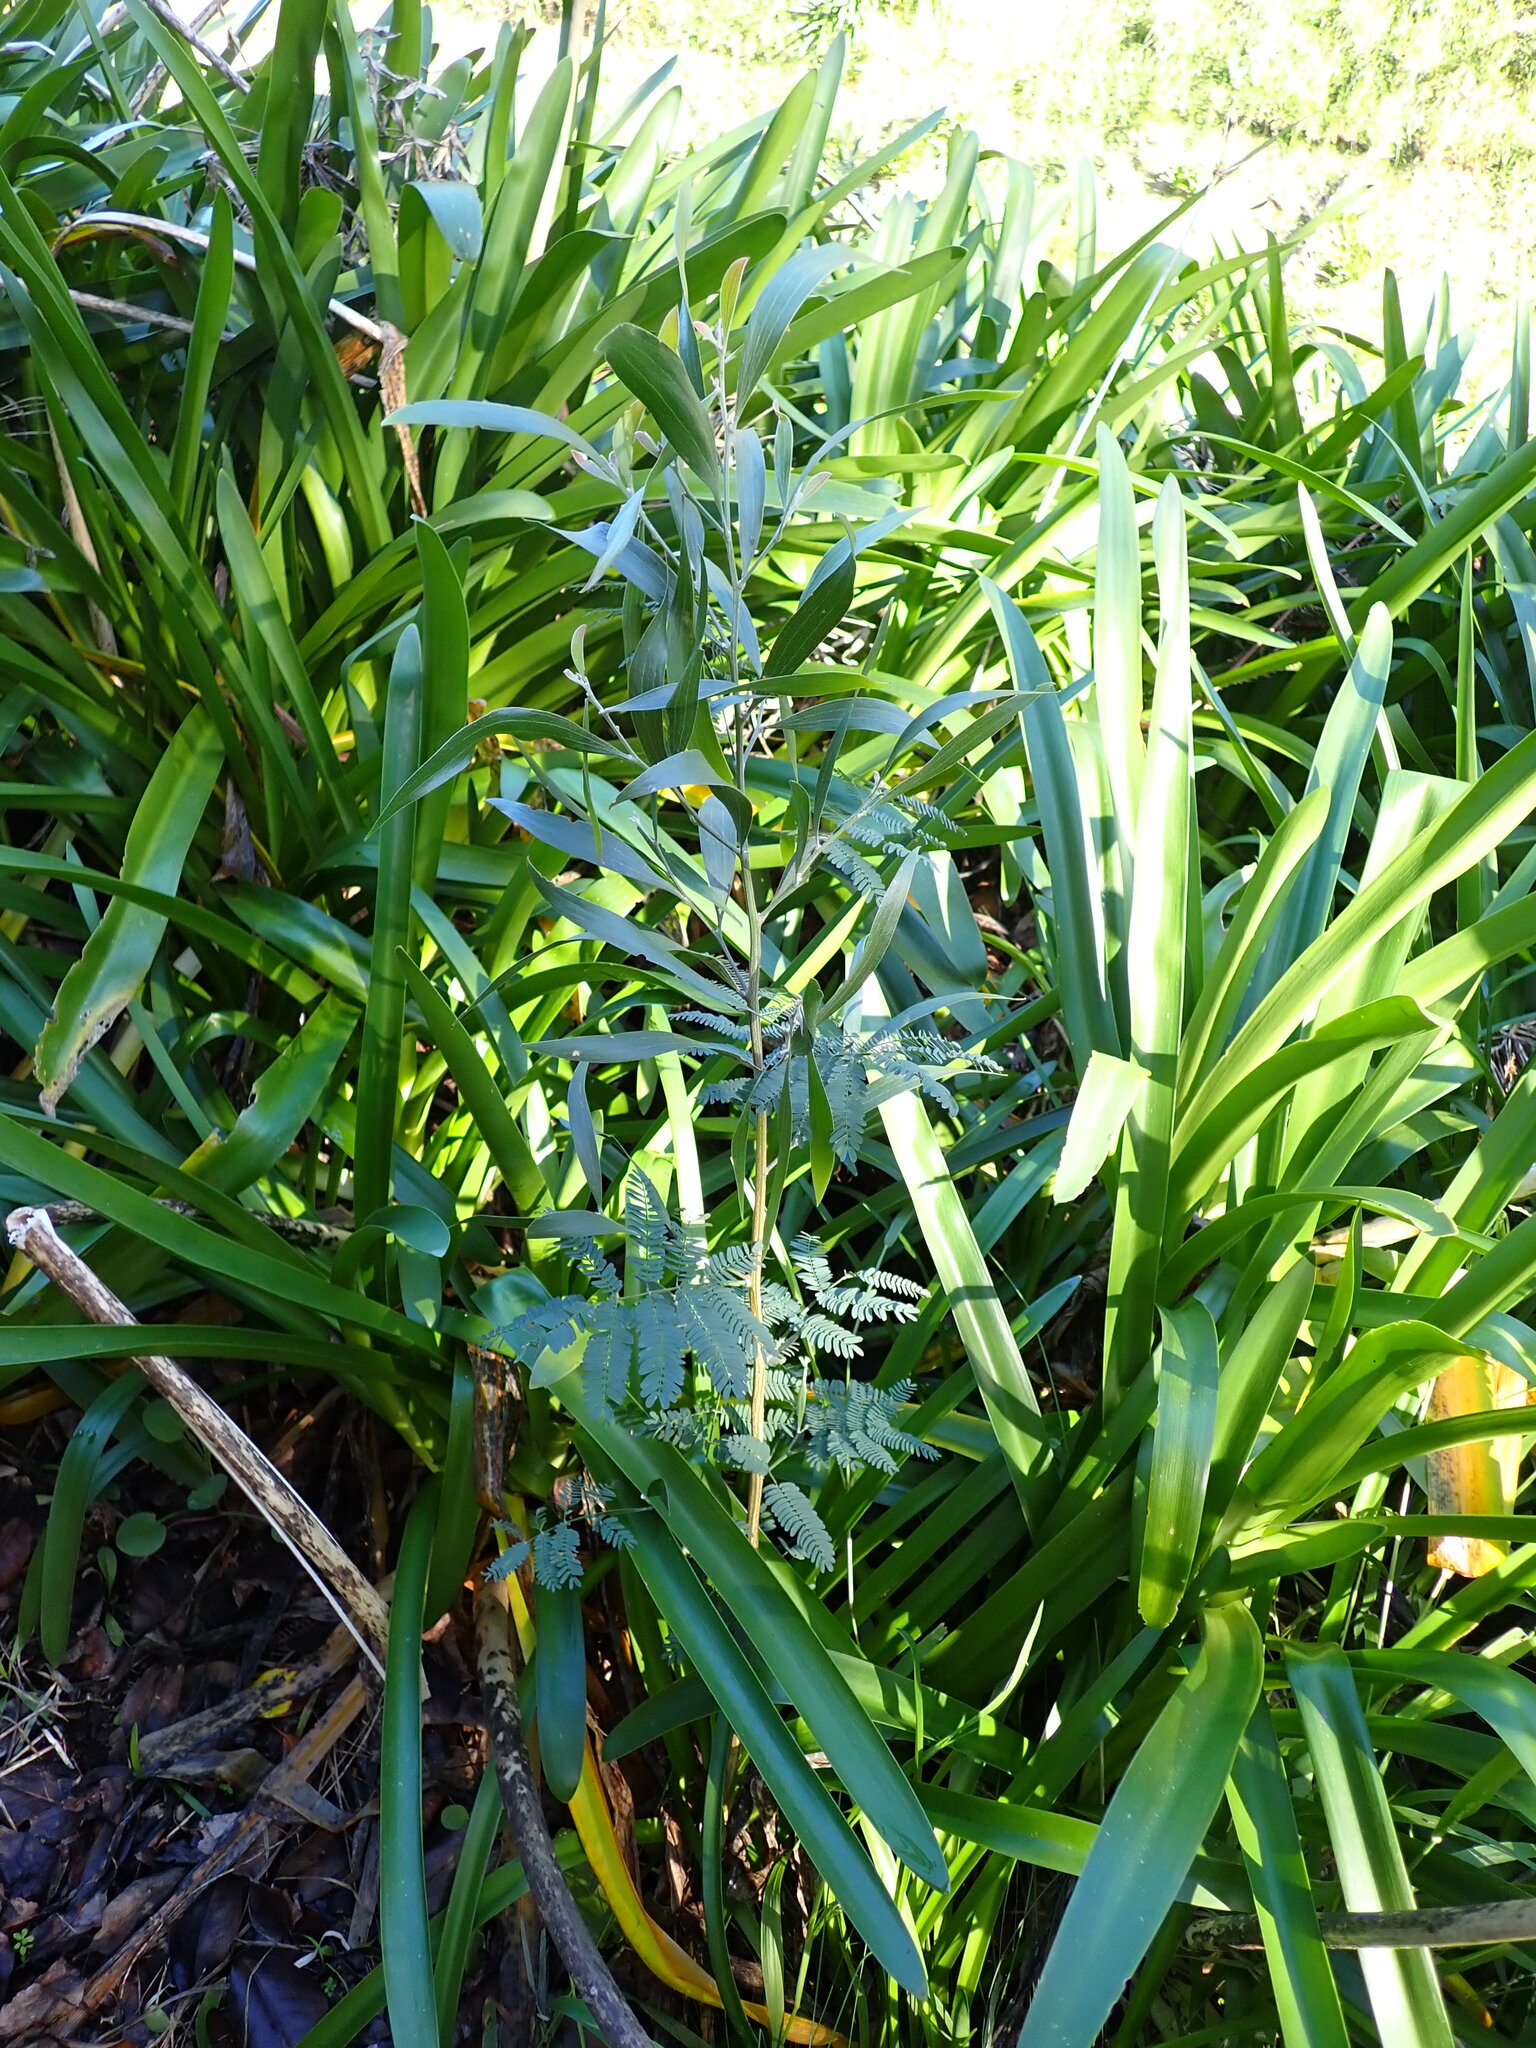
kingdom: Plantae
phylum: Tracheophyta
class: Magnoliopsida
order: Fabales
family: Fabaceae
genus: Acacia
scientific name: Acacia melanoxylon
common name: Blackwood
